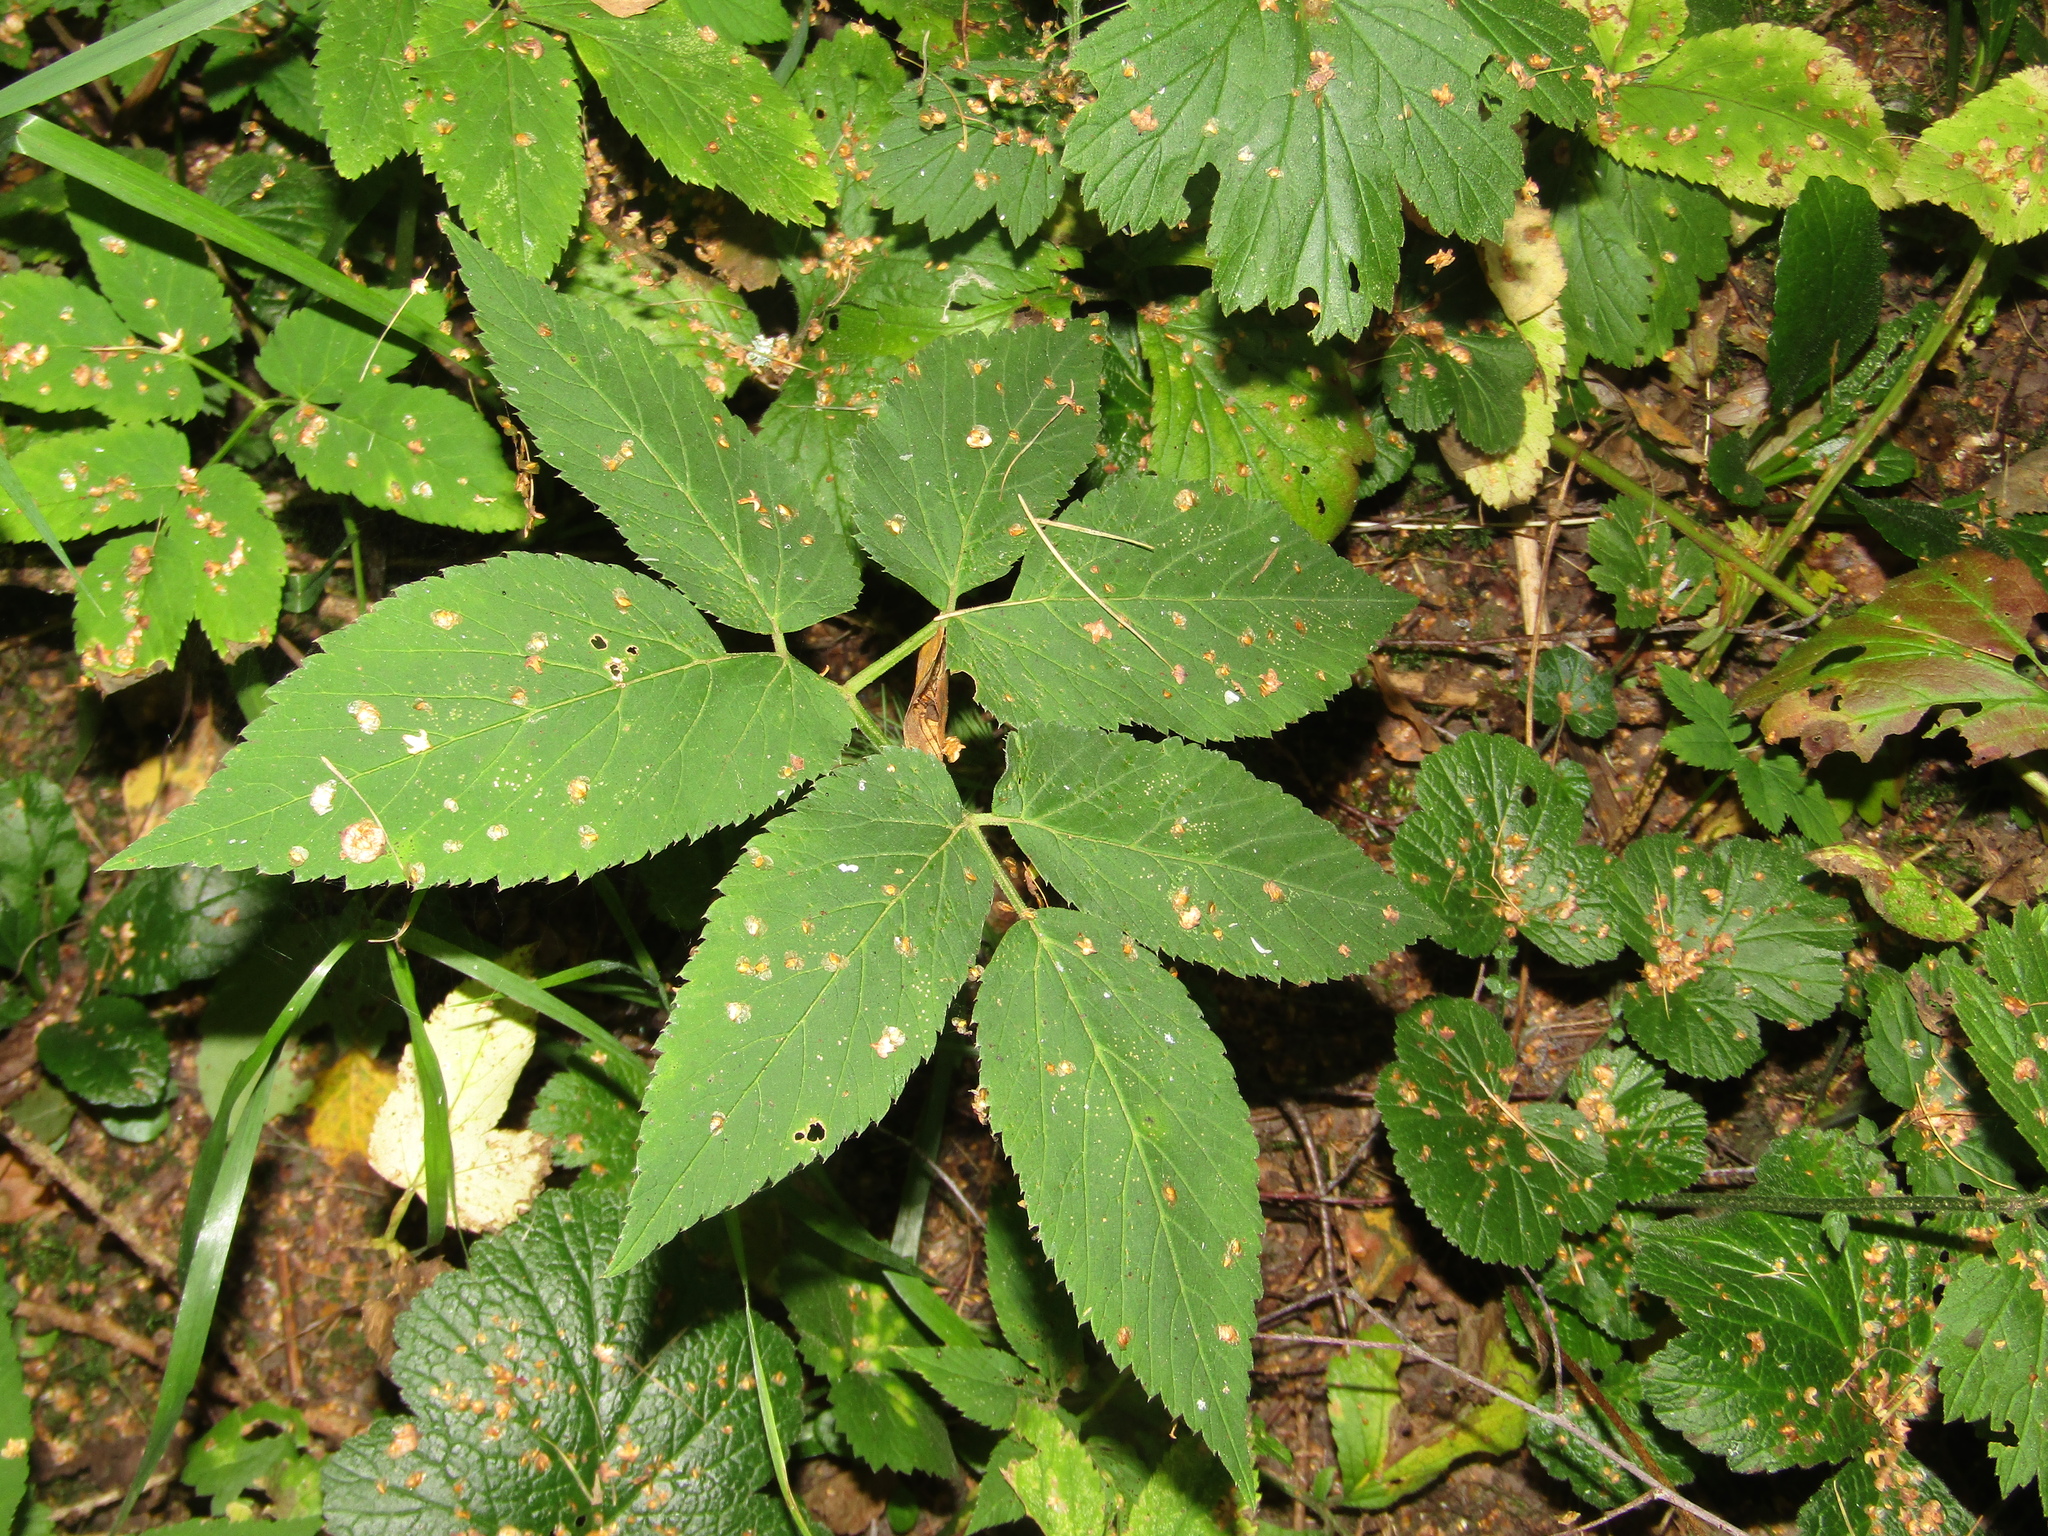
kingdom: Plantae
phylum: Tracheophyta
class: Magnoliopsida
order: Apiales
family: Apiaceae
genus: Aegopodium
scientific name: Aegopodium podagraria
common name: Ground-elder
